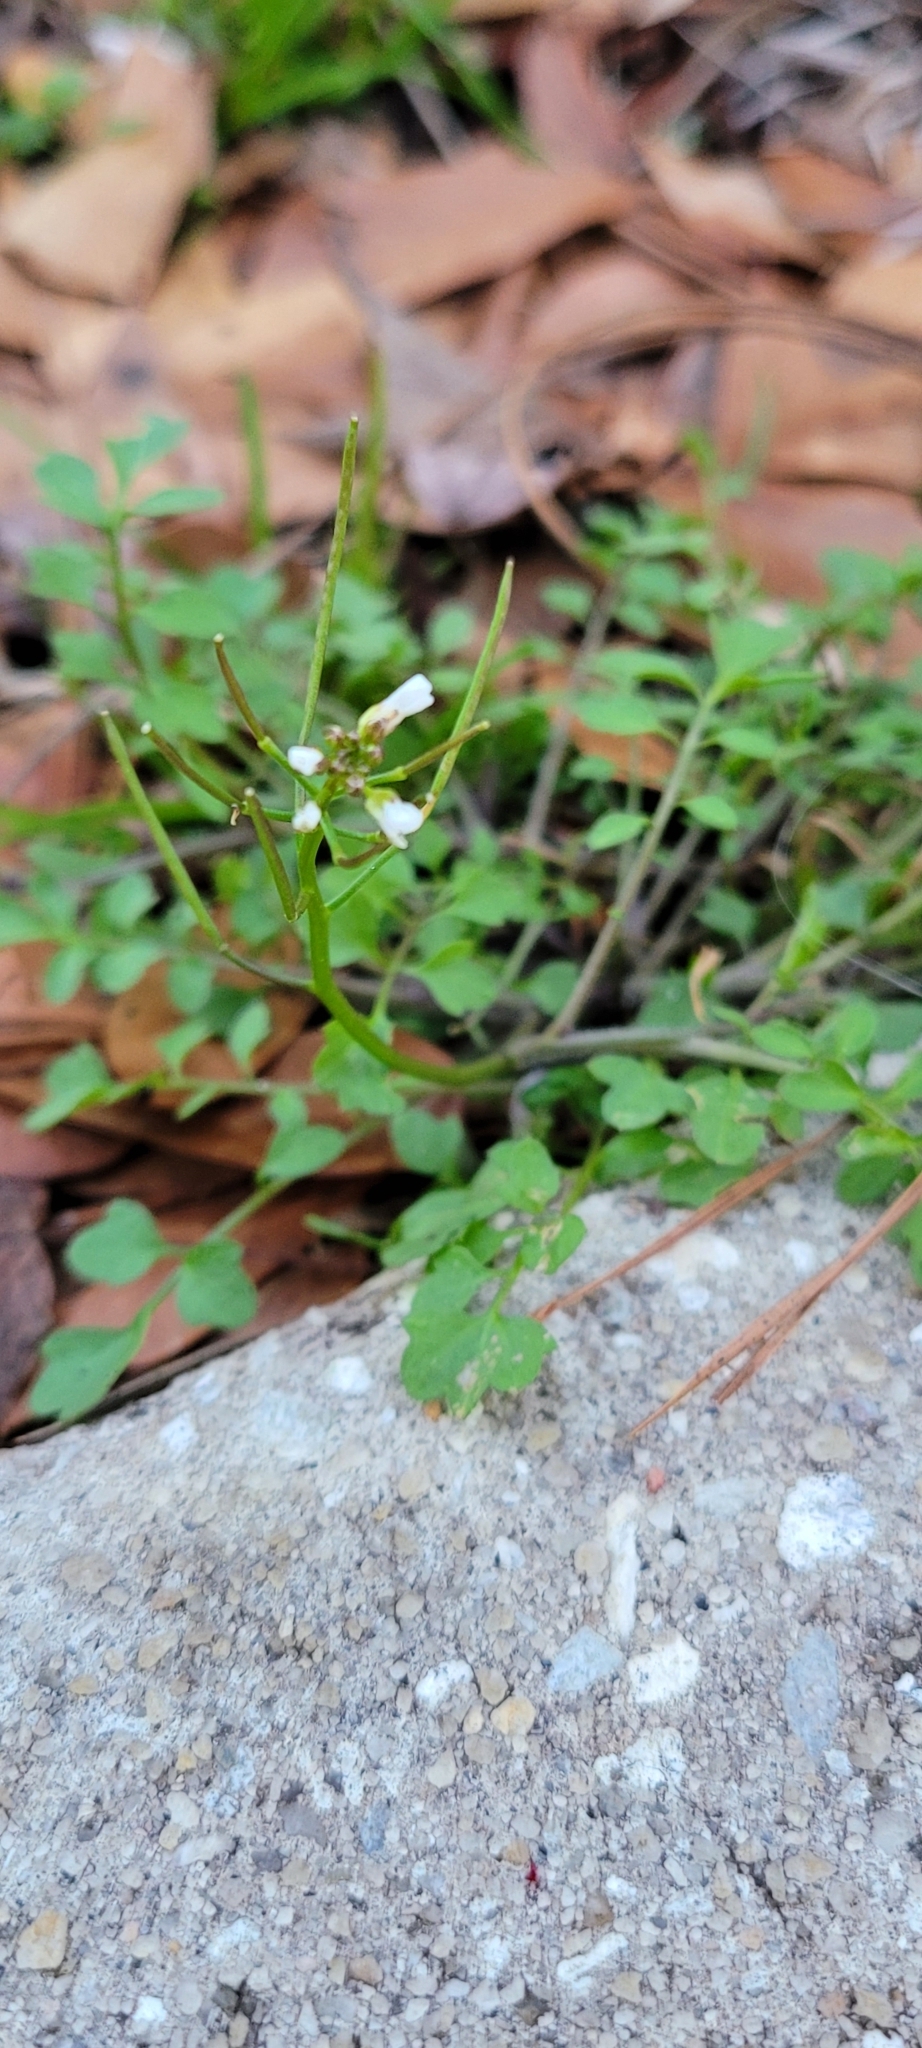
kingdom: Plantae
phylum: Tracheophyta
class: Magnoliopsida
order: Brassicales
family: Brassicaceae
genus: Cardamine
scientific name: Cardamine occulta
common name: Asian wavy bittercress
